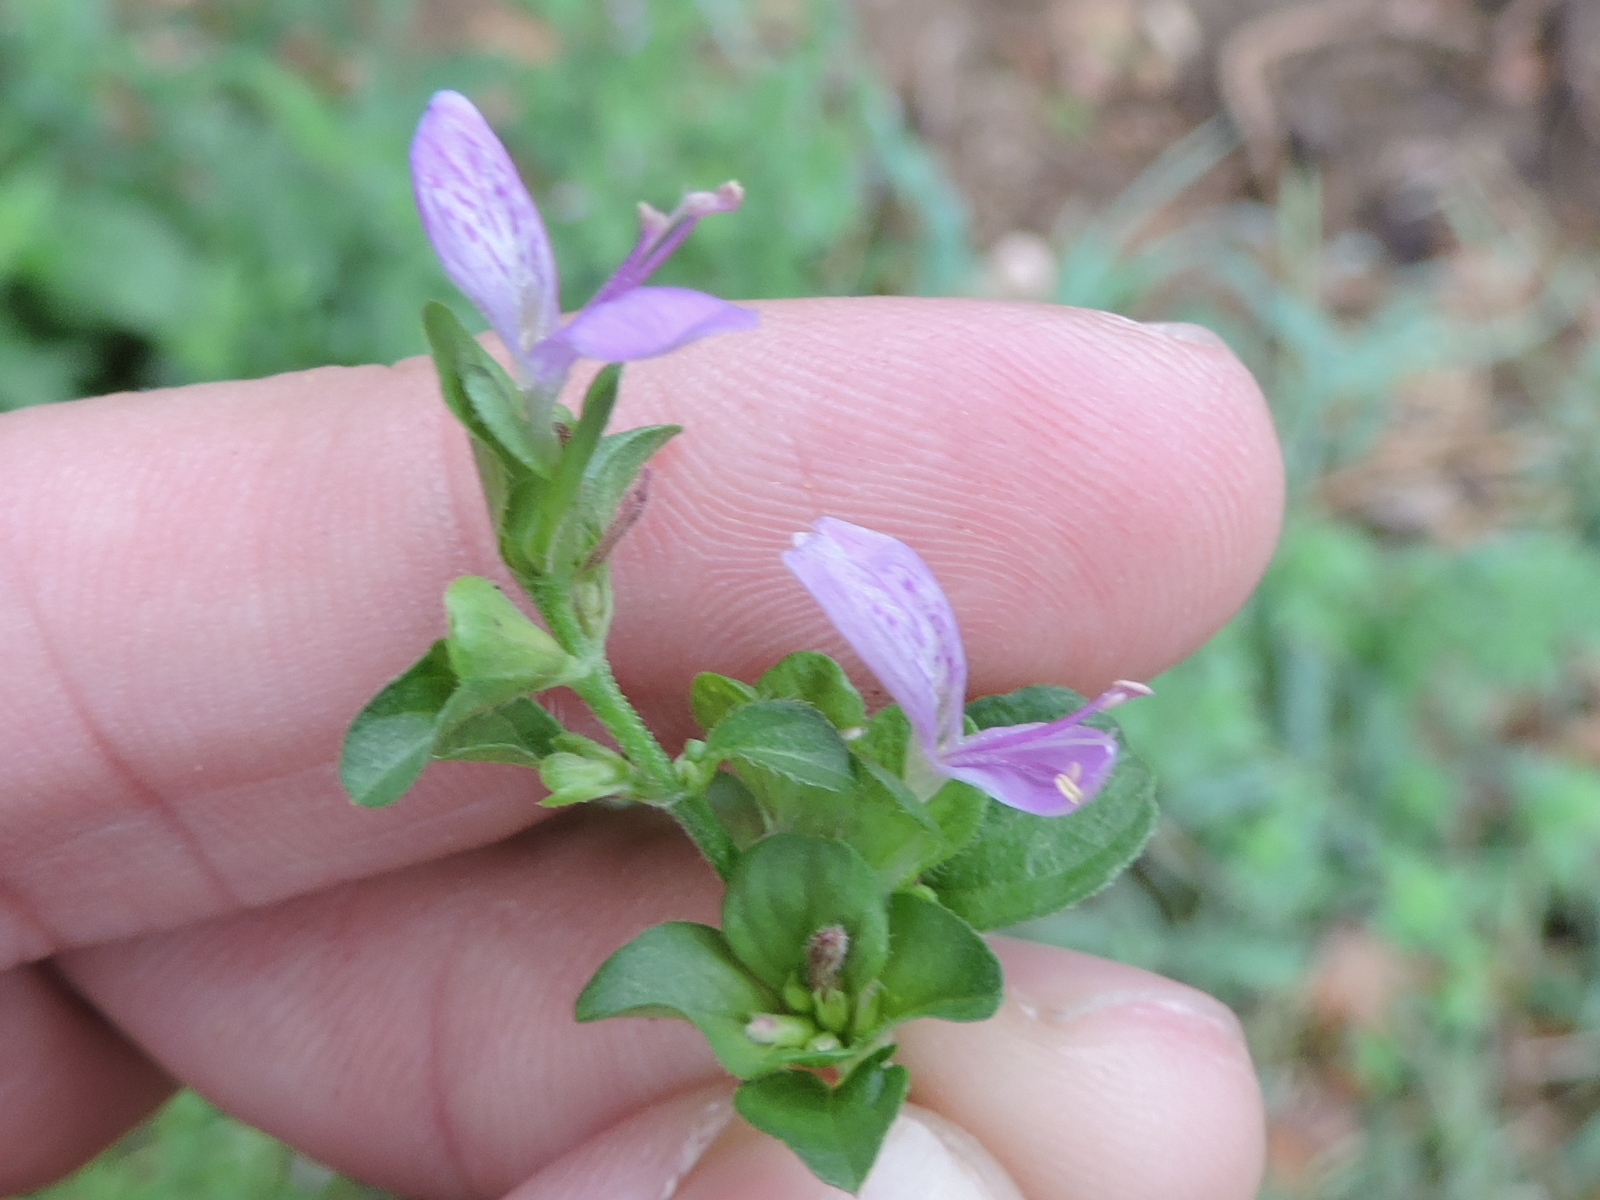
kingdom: Plantae
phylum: Tracheophyta
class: Magnoliopsida
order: Lamiales
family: Acanthaceae
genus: Dicliptera
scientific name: Dicliptera brachiata
